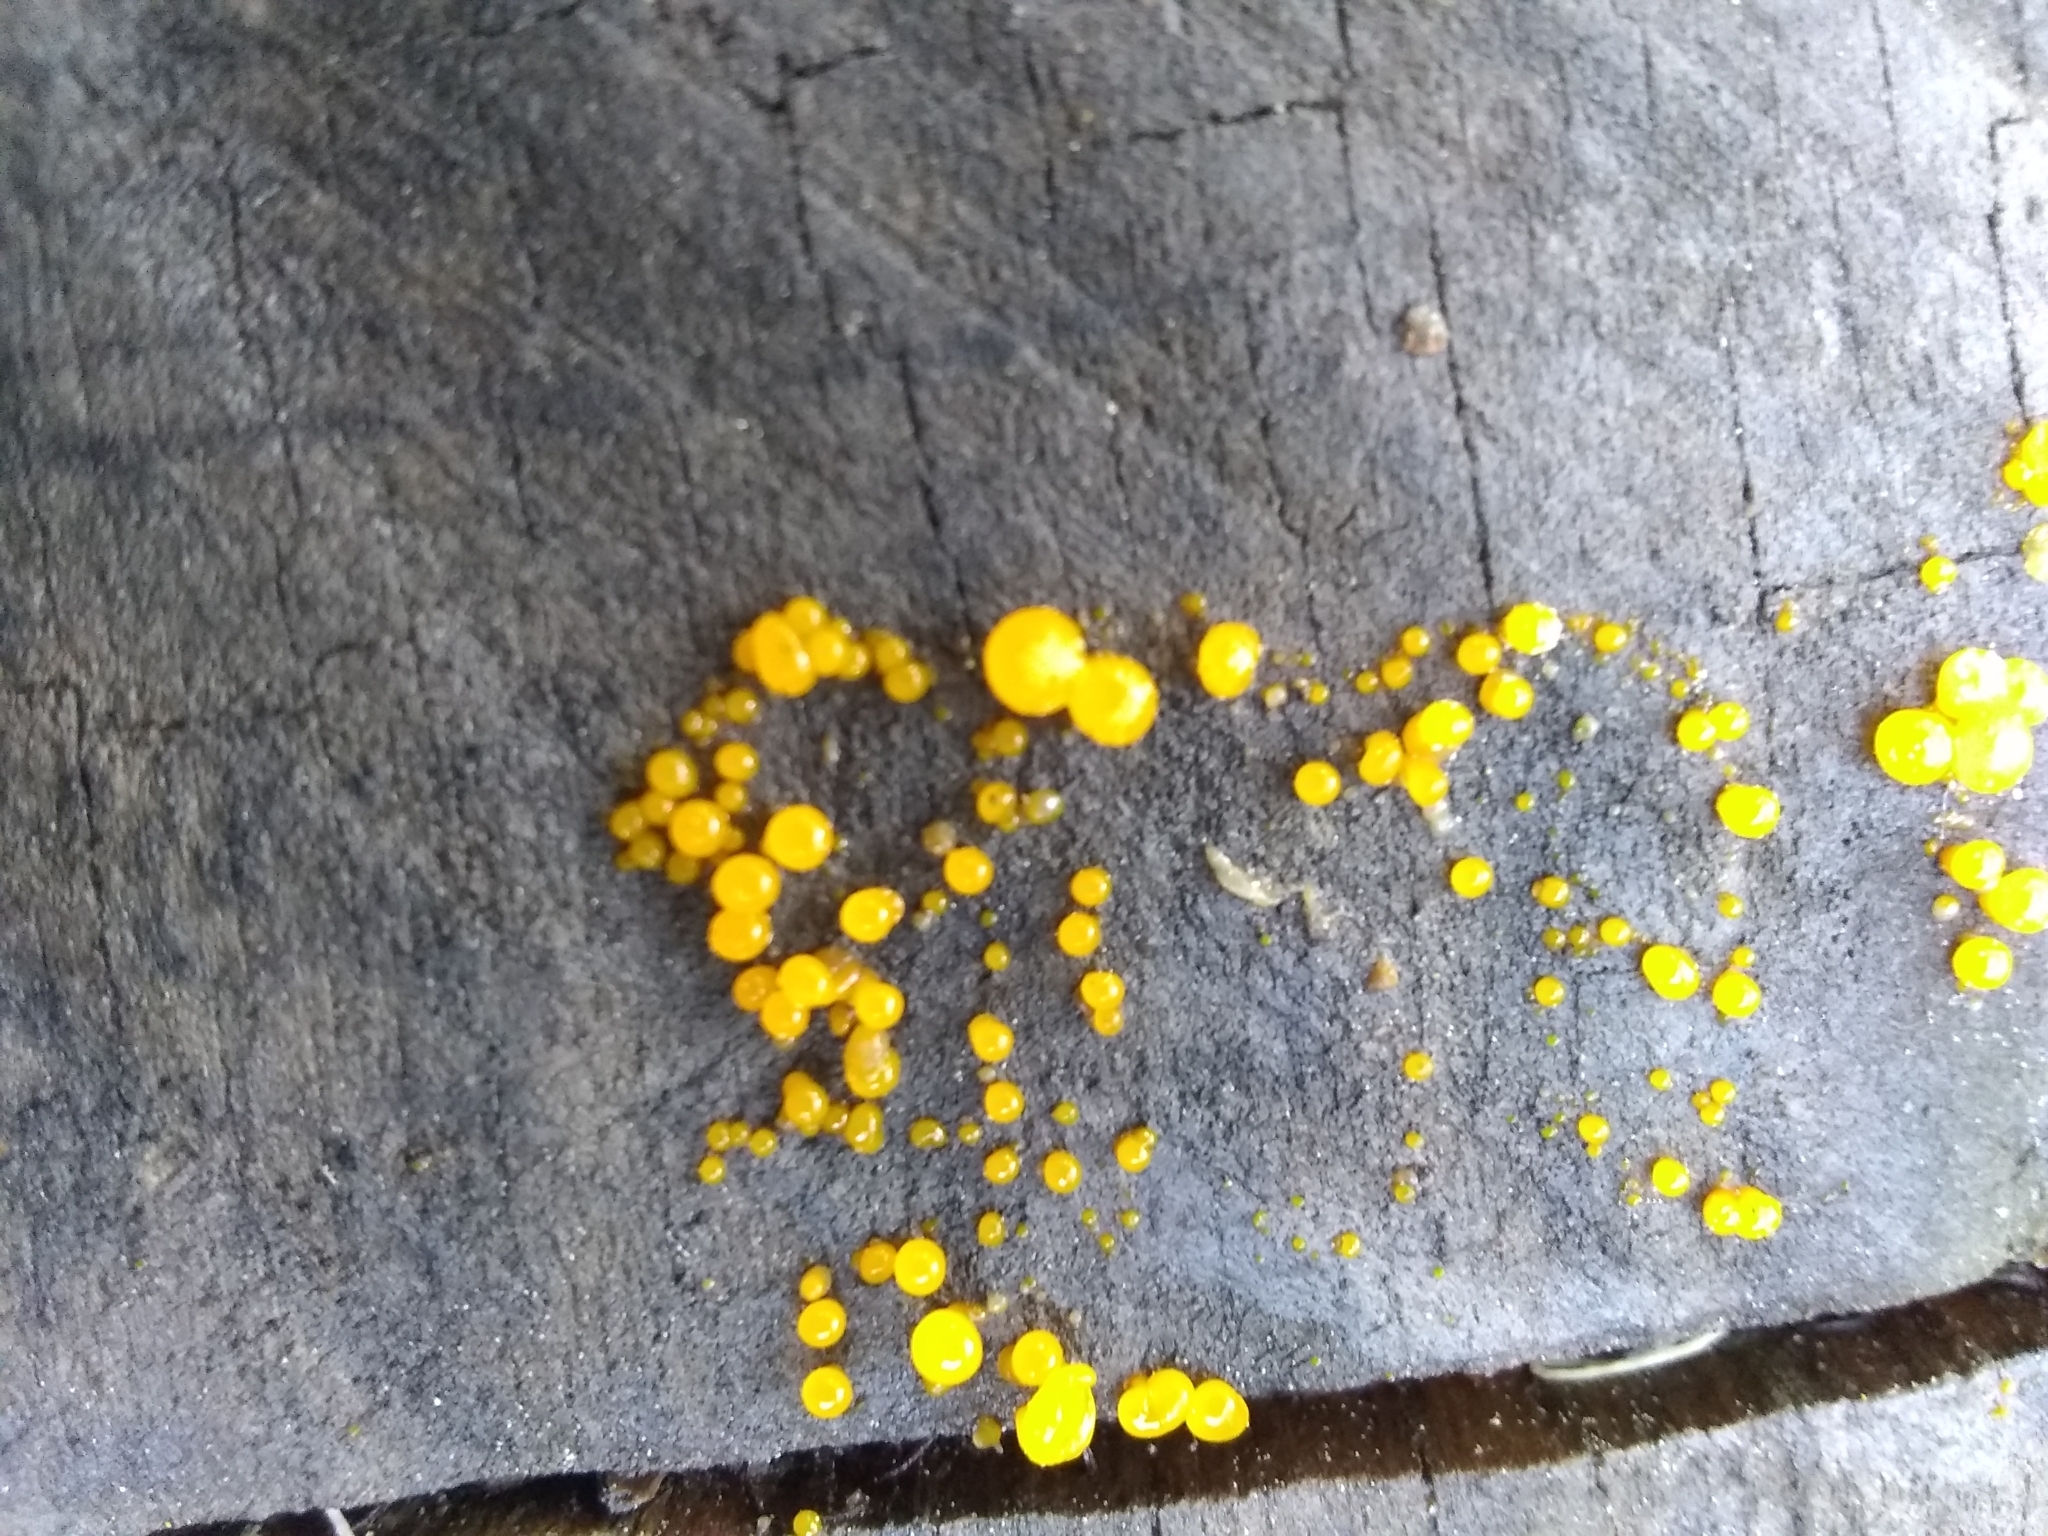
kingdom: Fungi
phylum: Basidiomycota
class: Dacrymycetes
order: Dacrymycetales
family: Dacrymycetaceae
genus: Dacrymyces
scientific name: Dacrymyces stillatus
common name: Common jelly spot
